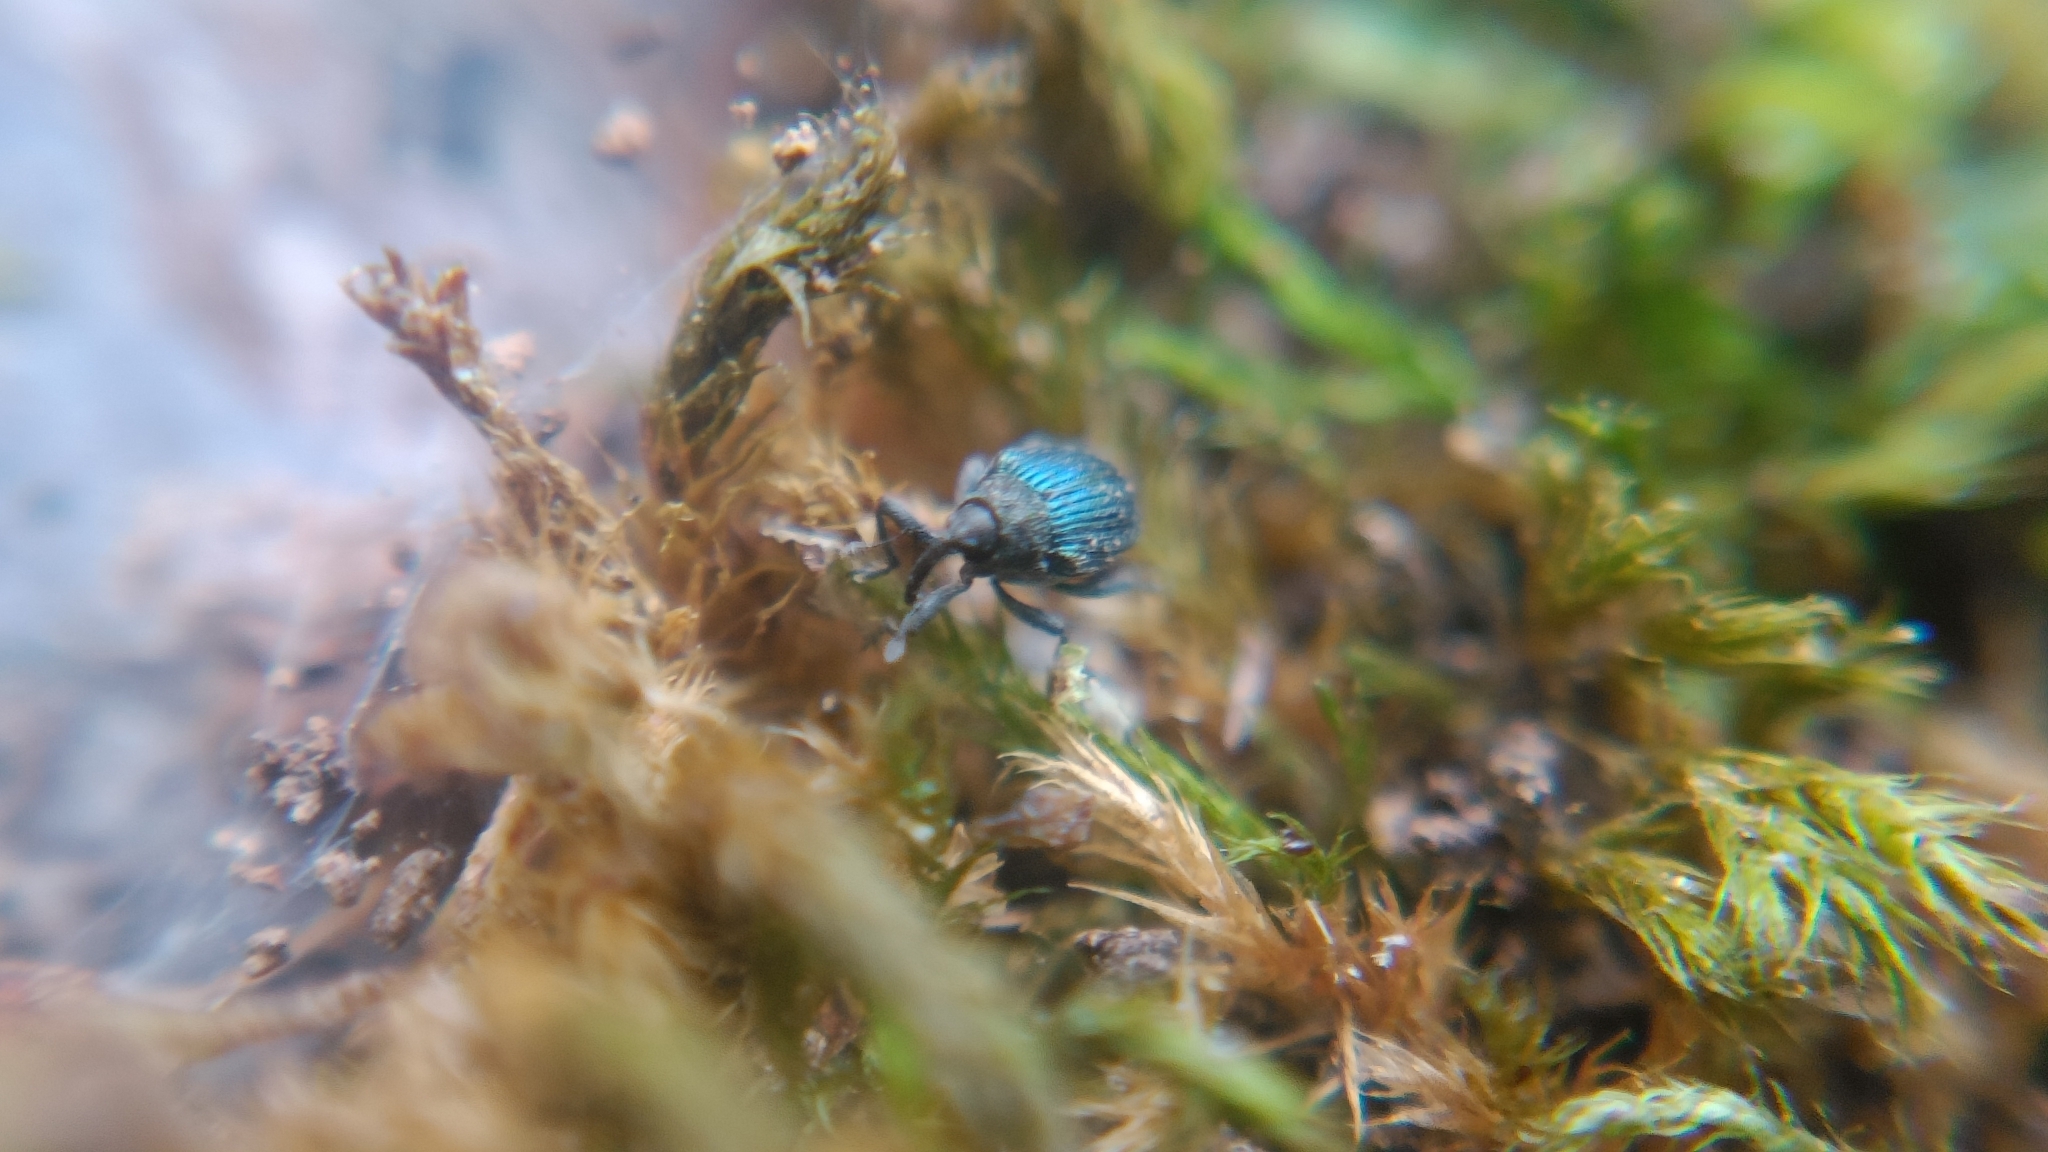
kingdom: Animalia
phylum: Arthropoda
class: Insecta
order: Coleoptera
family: Curculionidae
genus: Ceutorhynchus
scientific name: Ceutorhynchus erysimi
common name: Weevil
